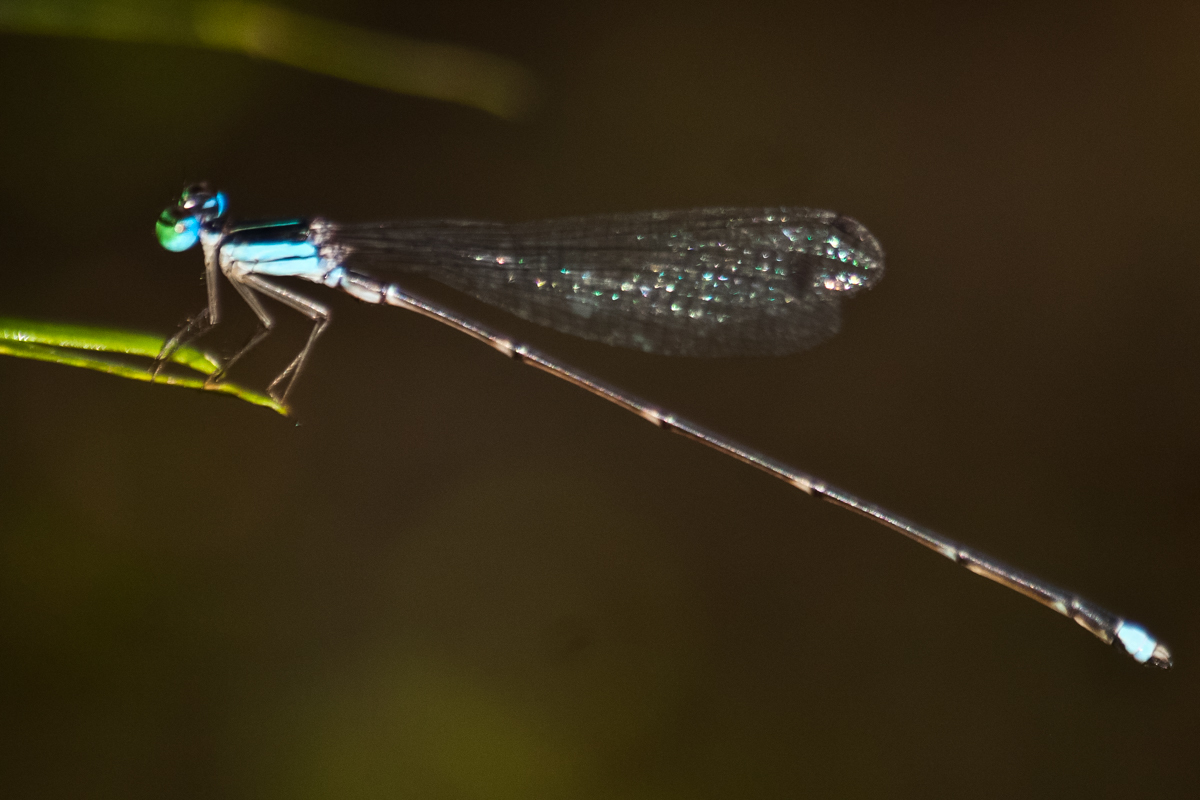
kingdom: Animalia
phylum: Arthropoda
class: Insecta
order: Odonata
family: Platycnemididae
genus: Coeliccia
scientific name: Coeliccia kazukoae
